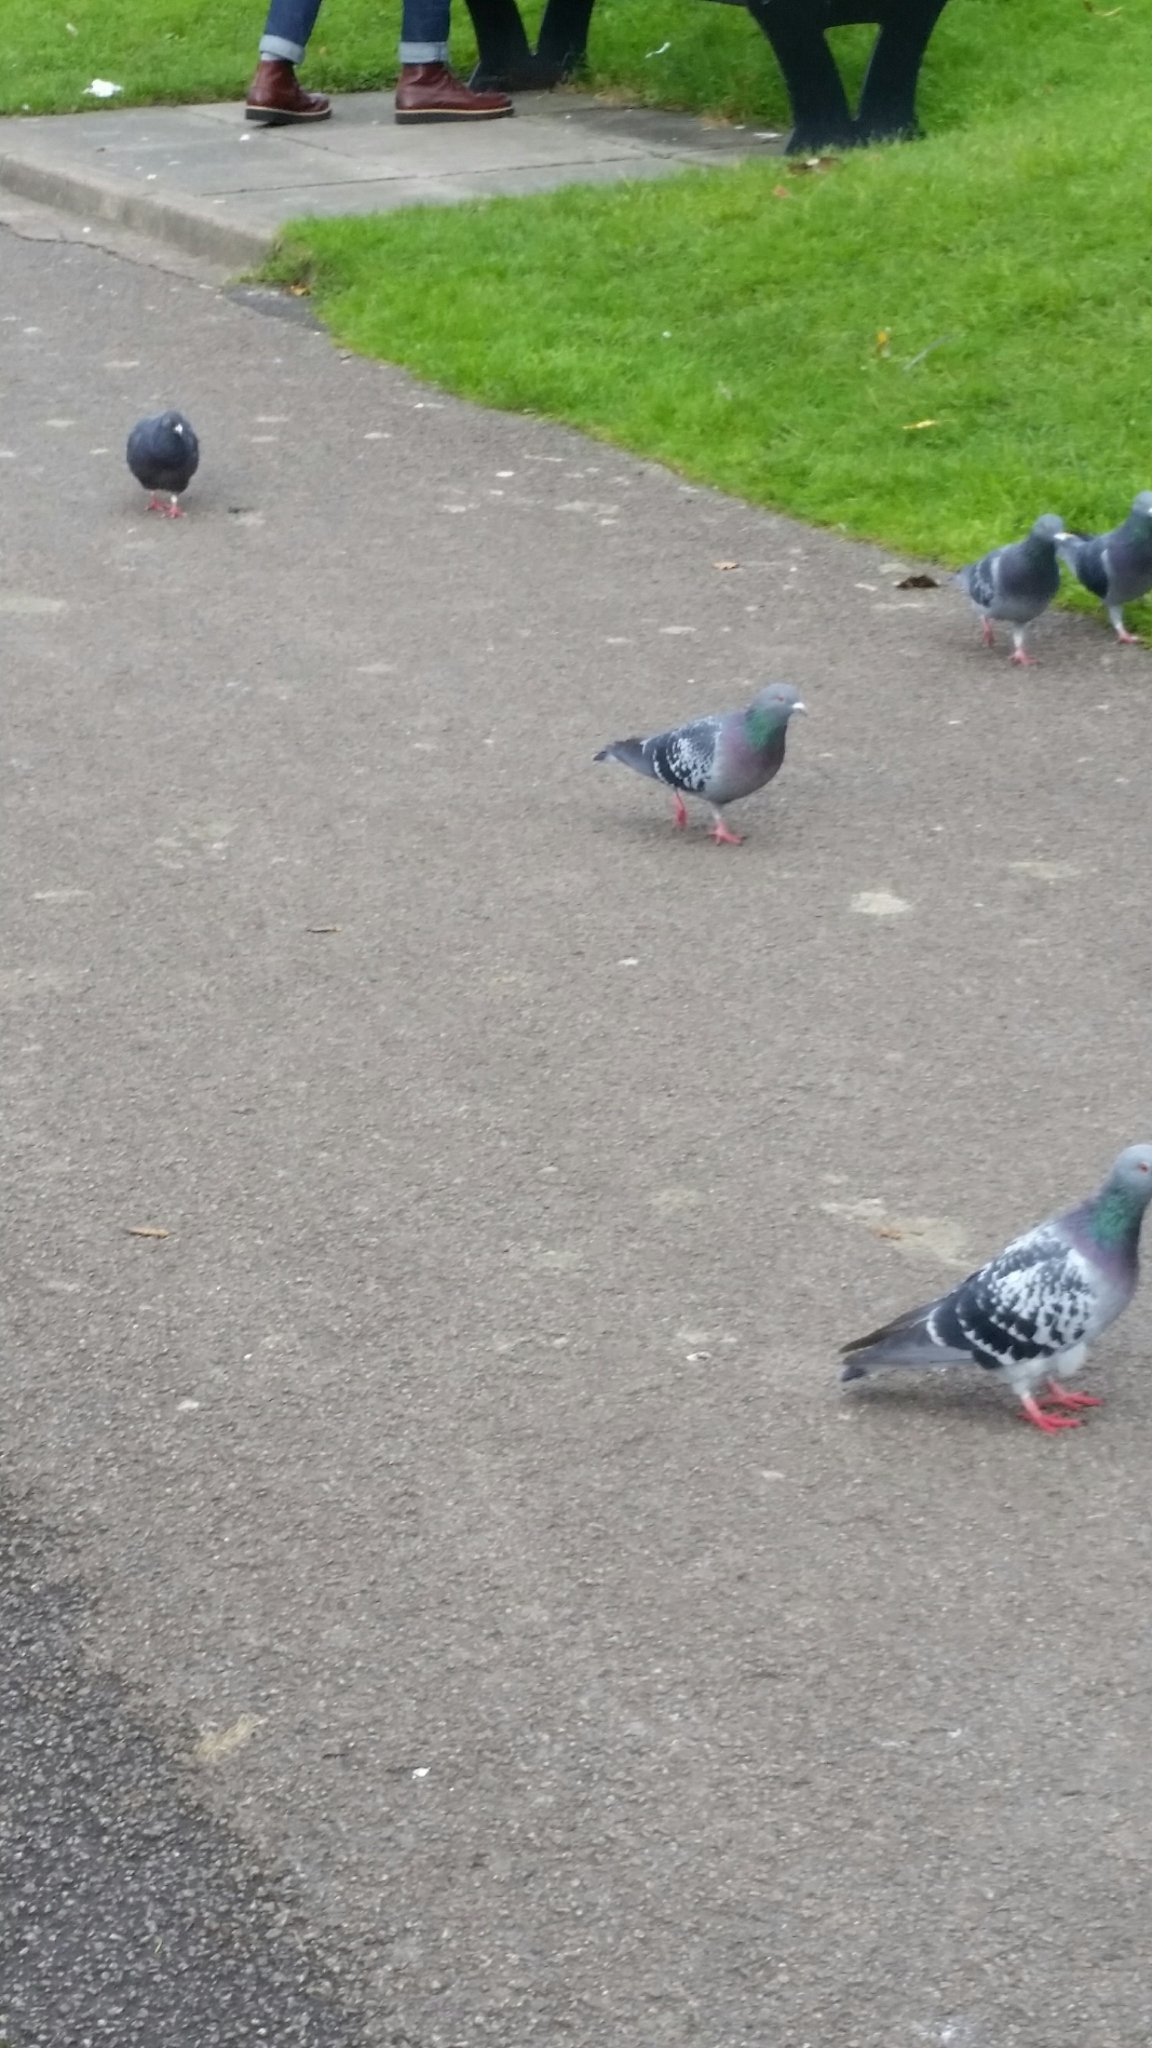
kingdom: Animalia
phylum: Chordata
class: Aves
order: Columbiformes
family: Columbidae
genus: Columba
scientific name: Columba livia
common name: Rock pigeon
